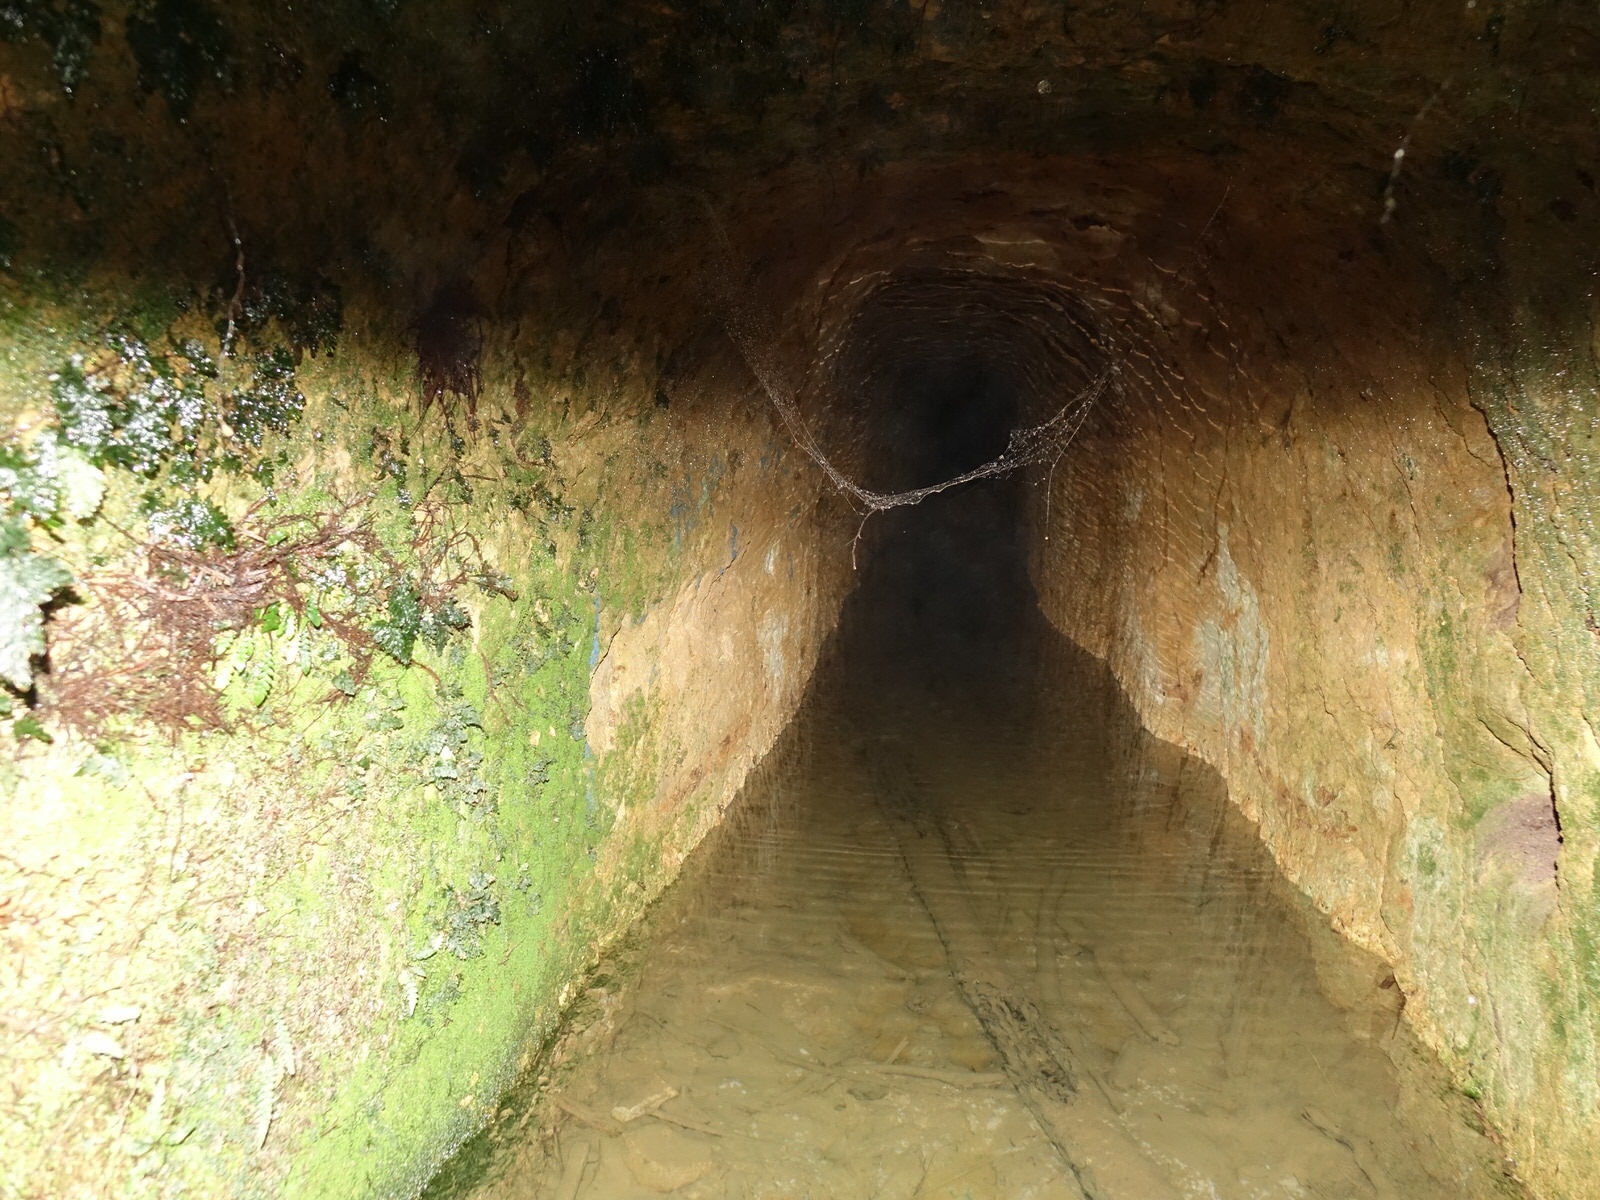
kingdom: Plantae
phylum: Tracheophyta
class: Polypodiopsida
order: Hymenophyllales
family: Hymenophyllaceae
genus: Abrodictyum
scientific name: Abrodictyum elongatum
